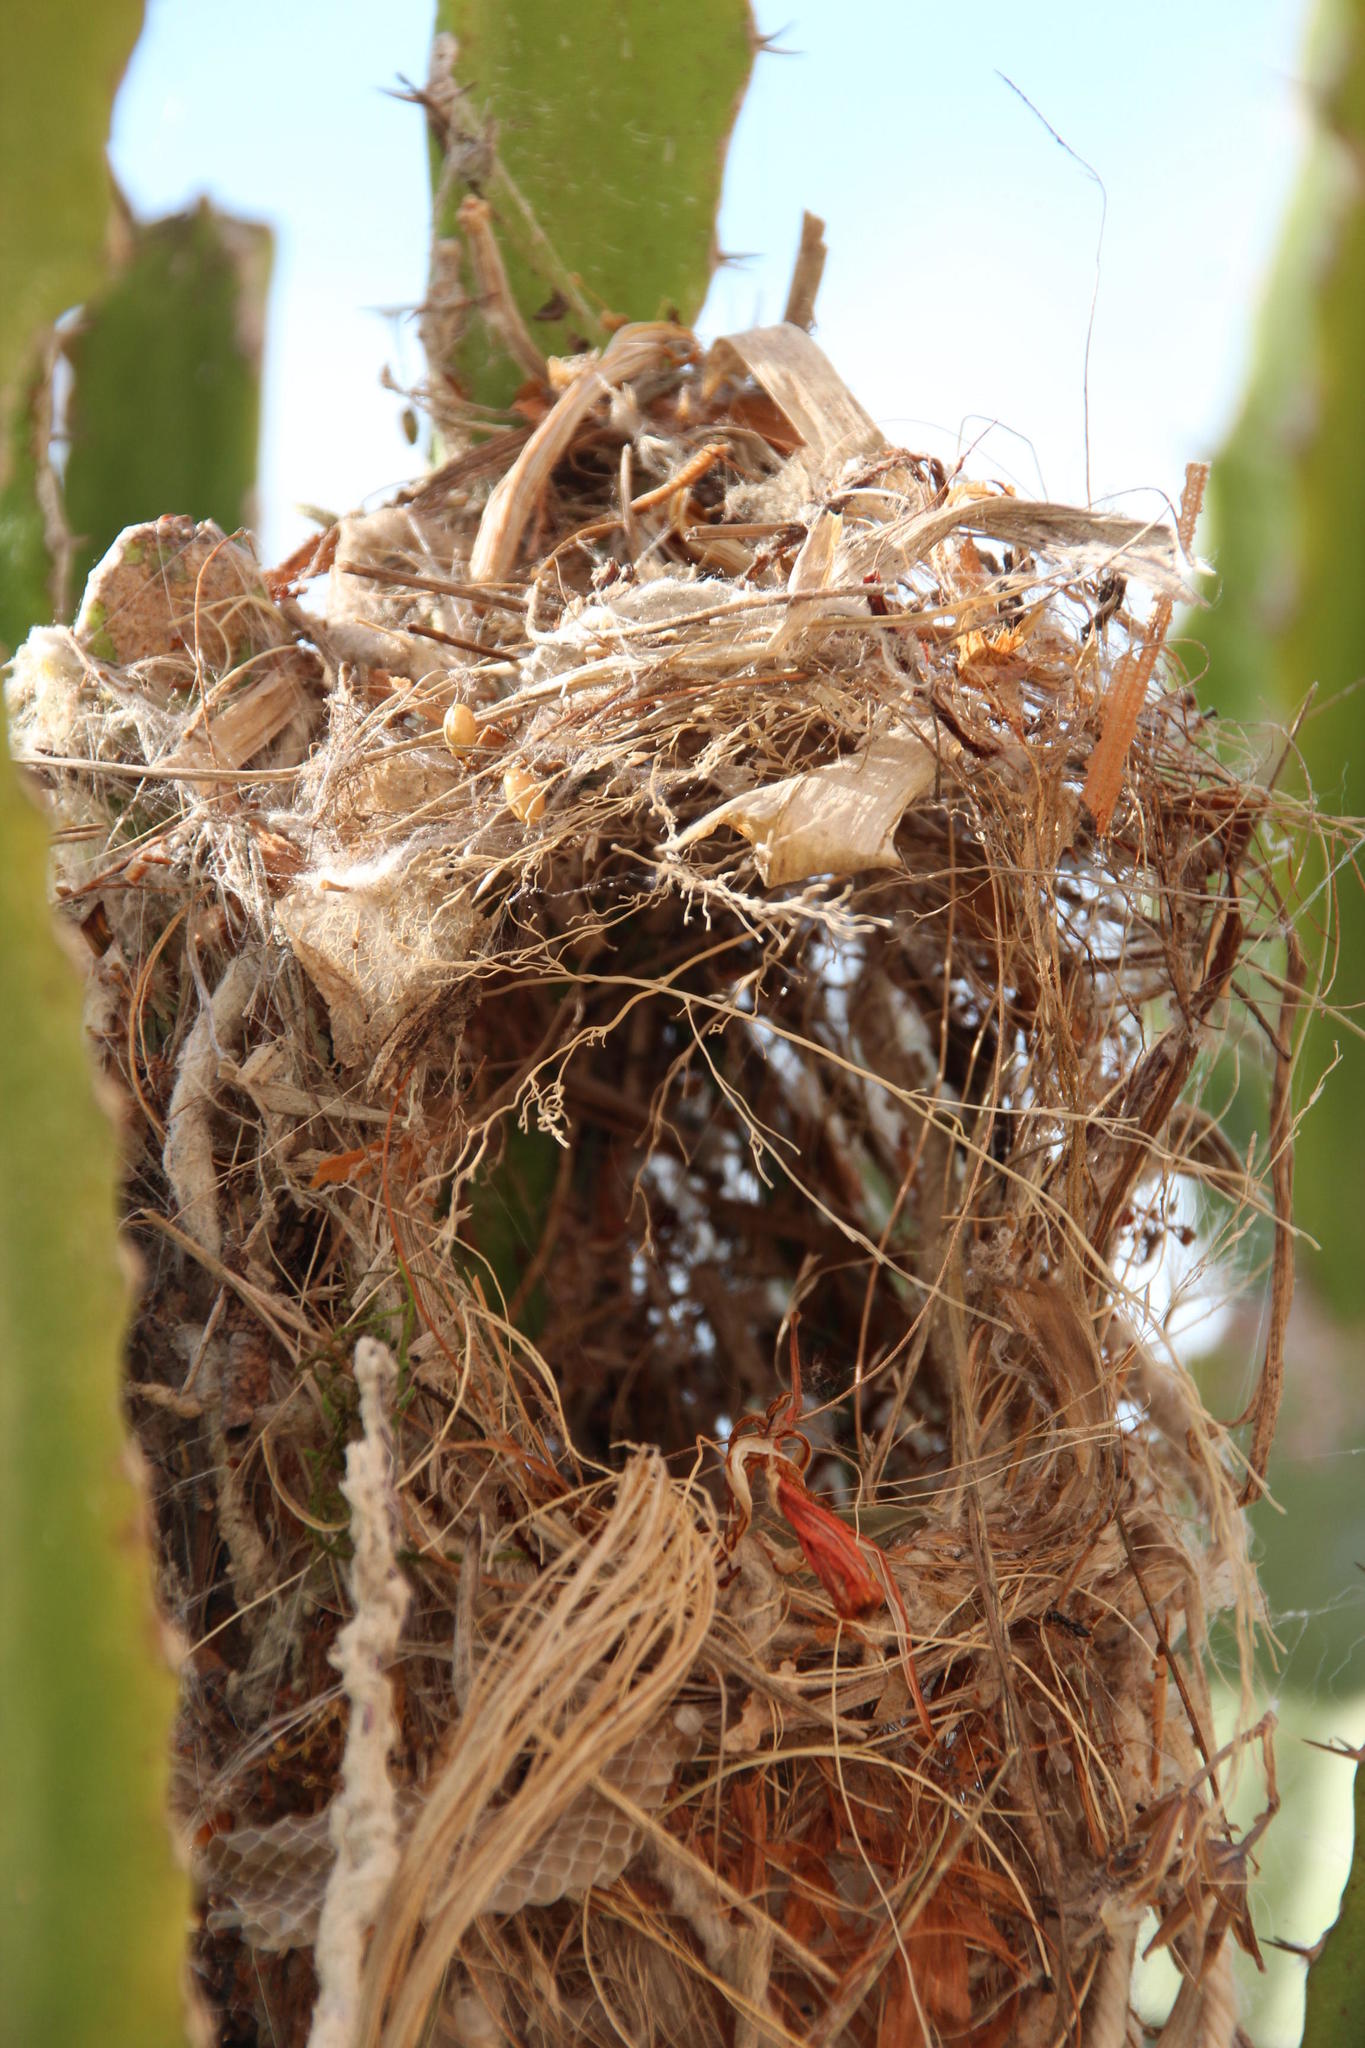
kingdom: Animalia
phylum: Chordata
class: Aves
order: Passeriformes
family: Nectariniidae
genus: Nectarinia
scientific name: Nectarinia famosa
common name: Malachite sunbird
